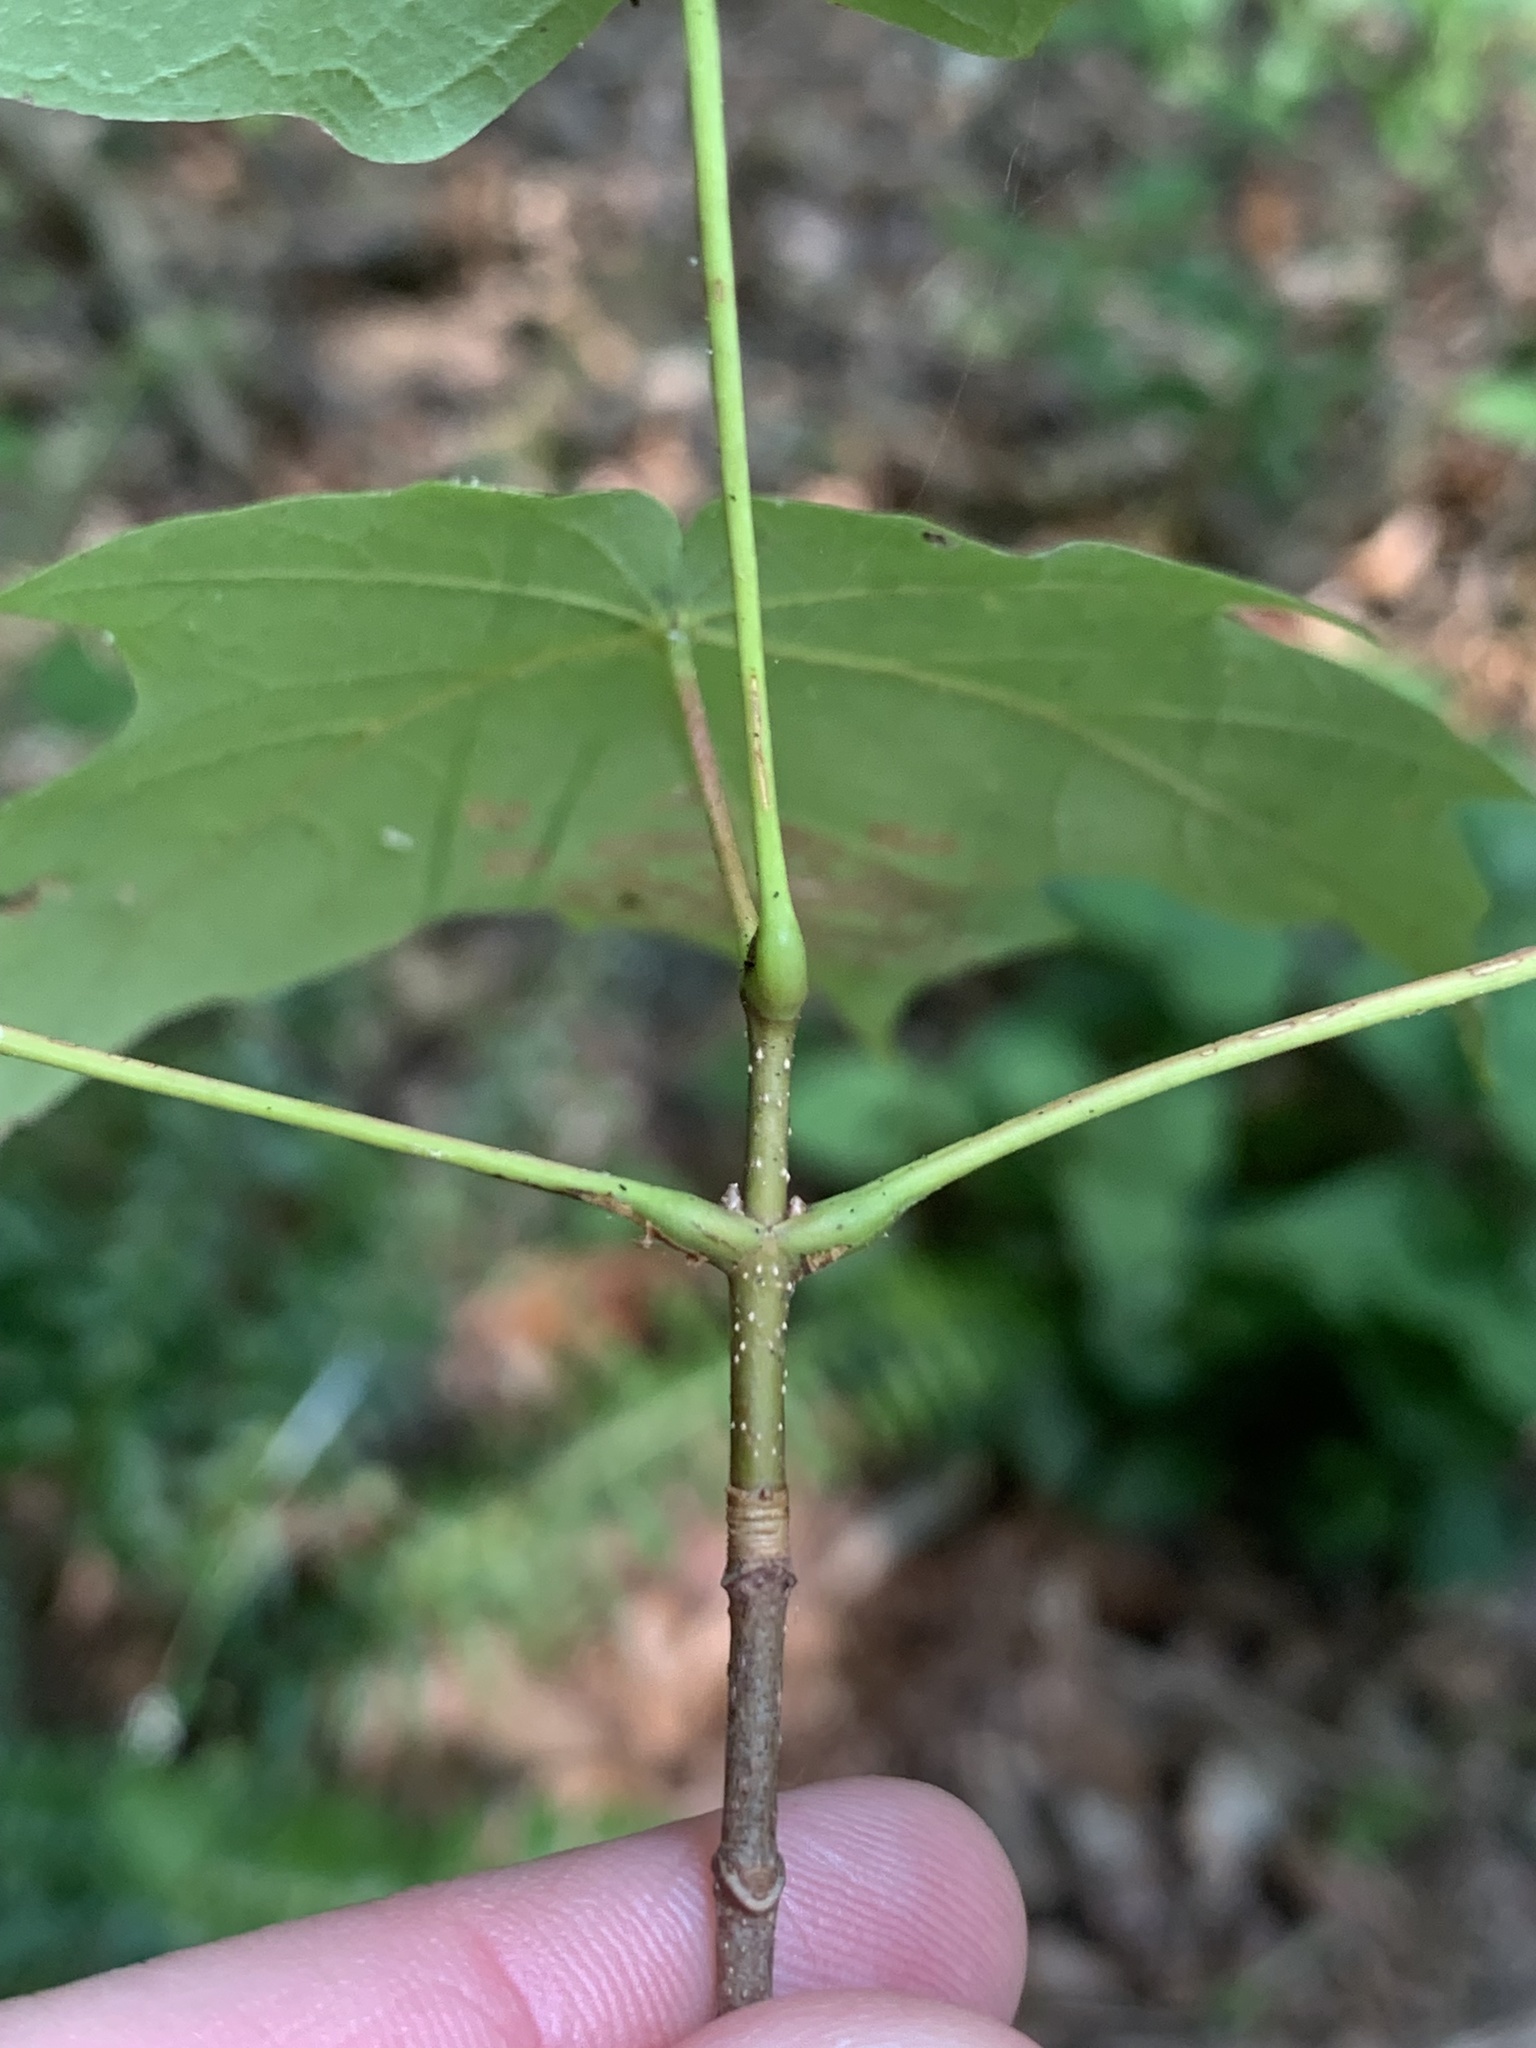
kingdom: Plantae
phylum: Tracheophyta
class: Magnoliopsida
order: Sapindales
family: Sapindaceae
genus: Acer
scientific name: Acer saccharum
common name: Sugar maple
